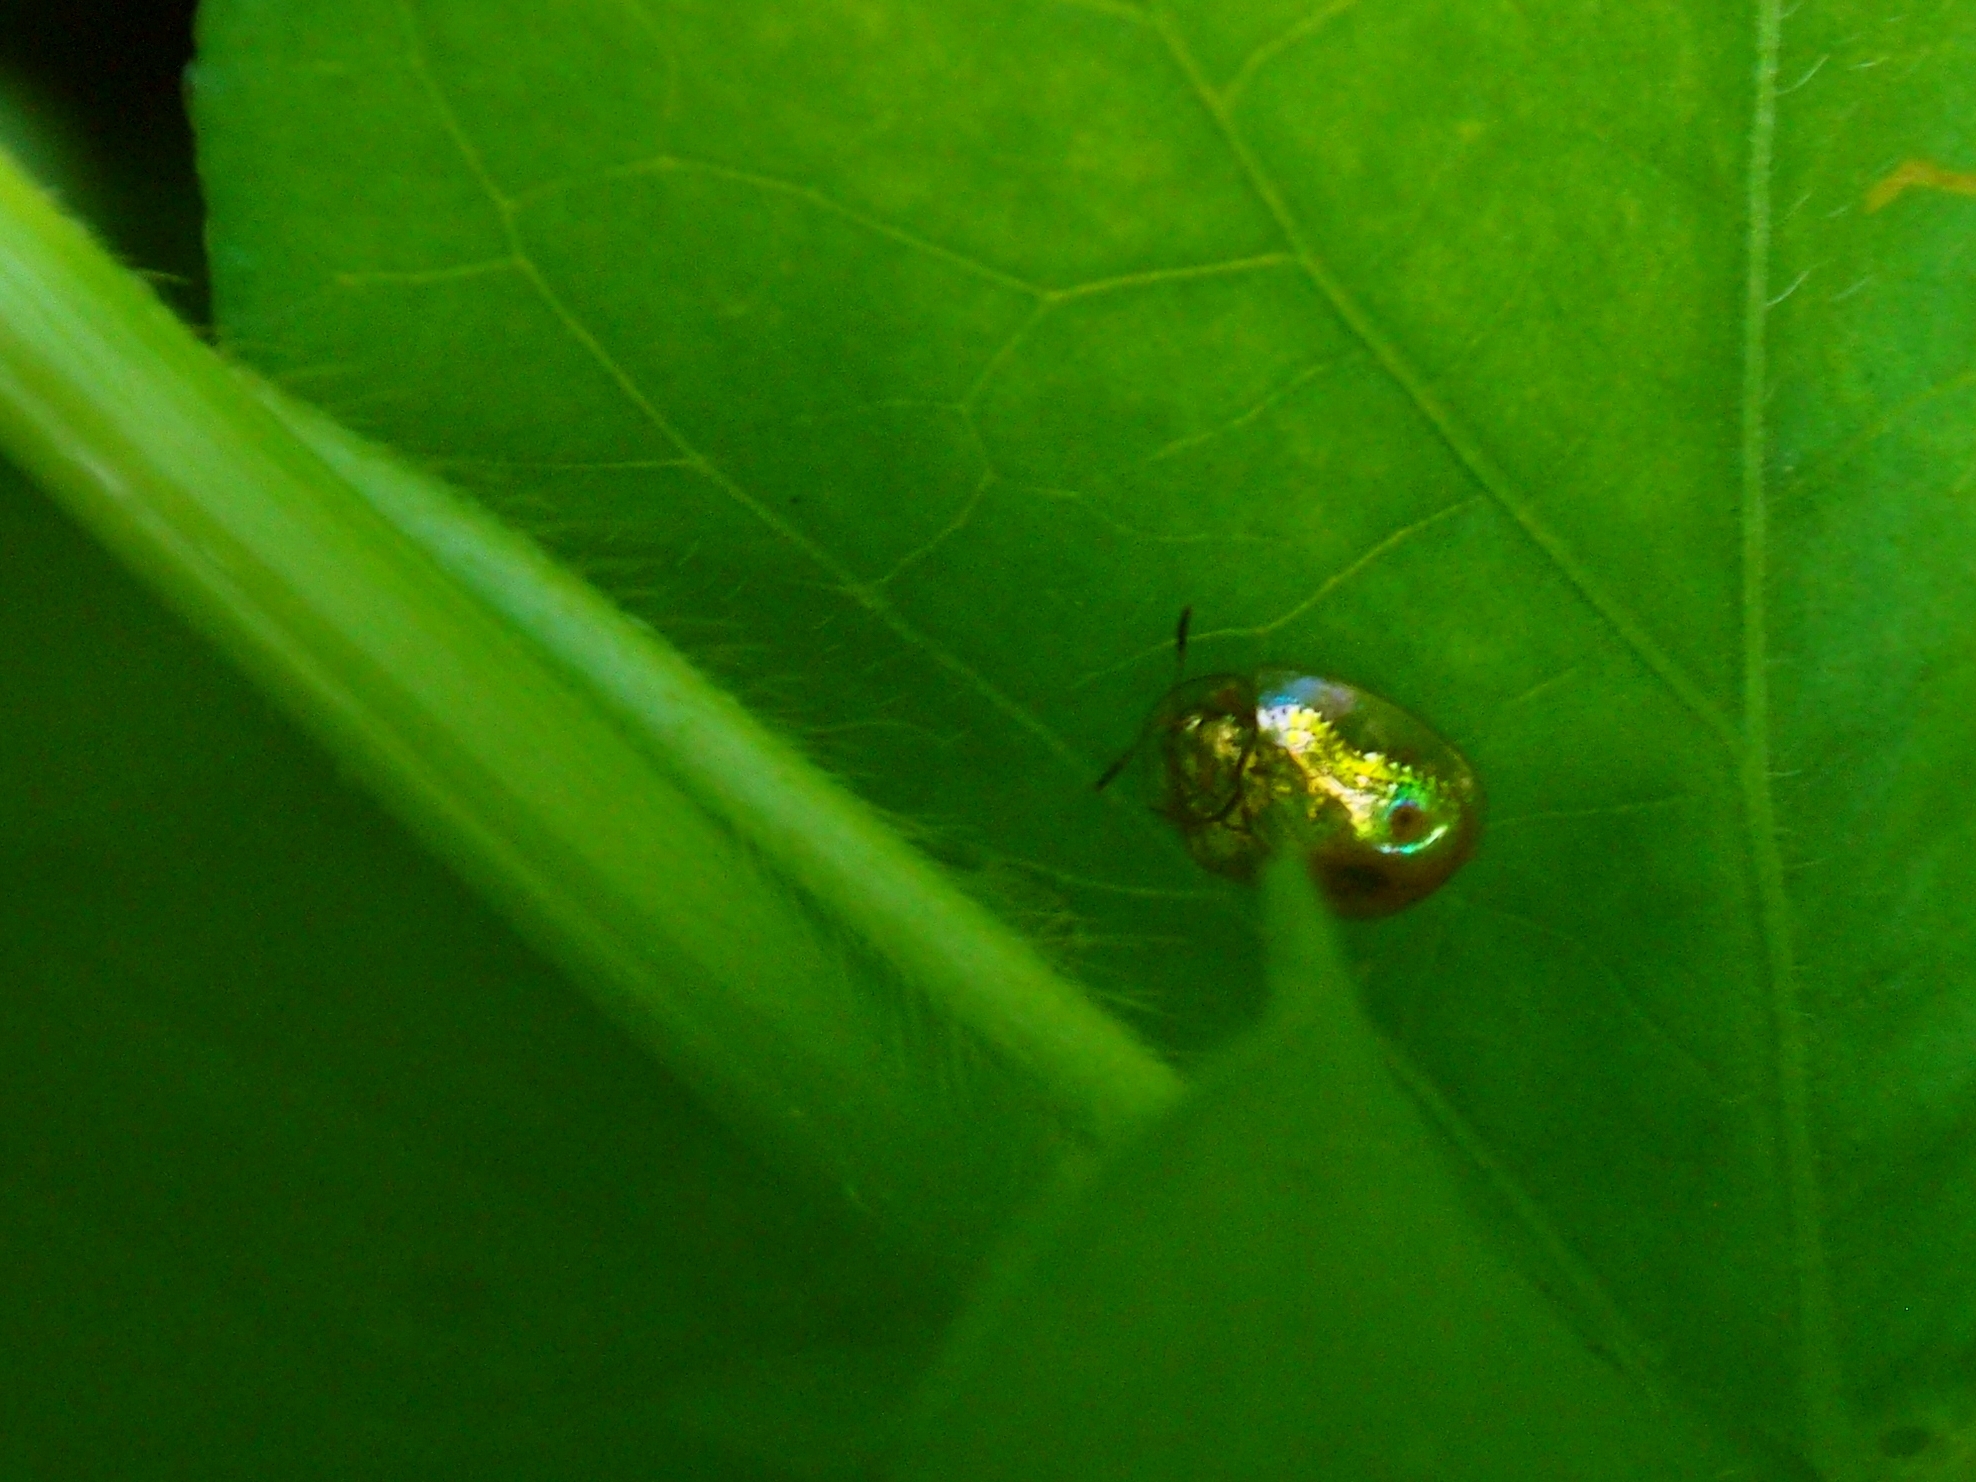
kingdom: Animalia
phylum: Arthropoda
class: Insecta
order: Coleoptera
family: Chrysomelidae
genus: Charidotella
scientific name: Charidotella sexpunctata
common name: Golden tortoise beetle
